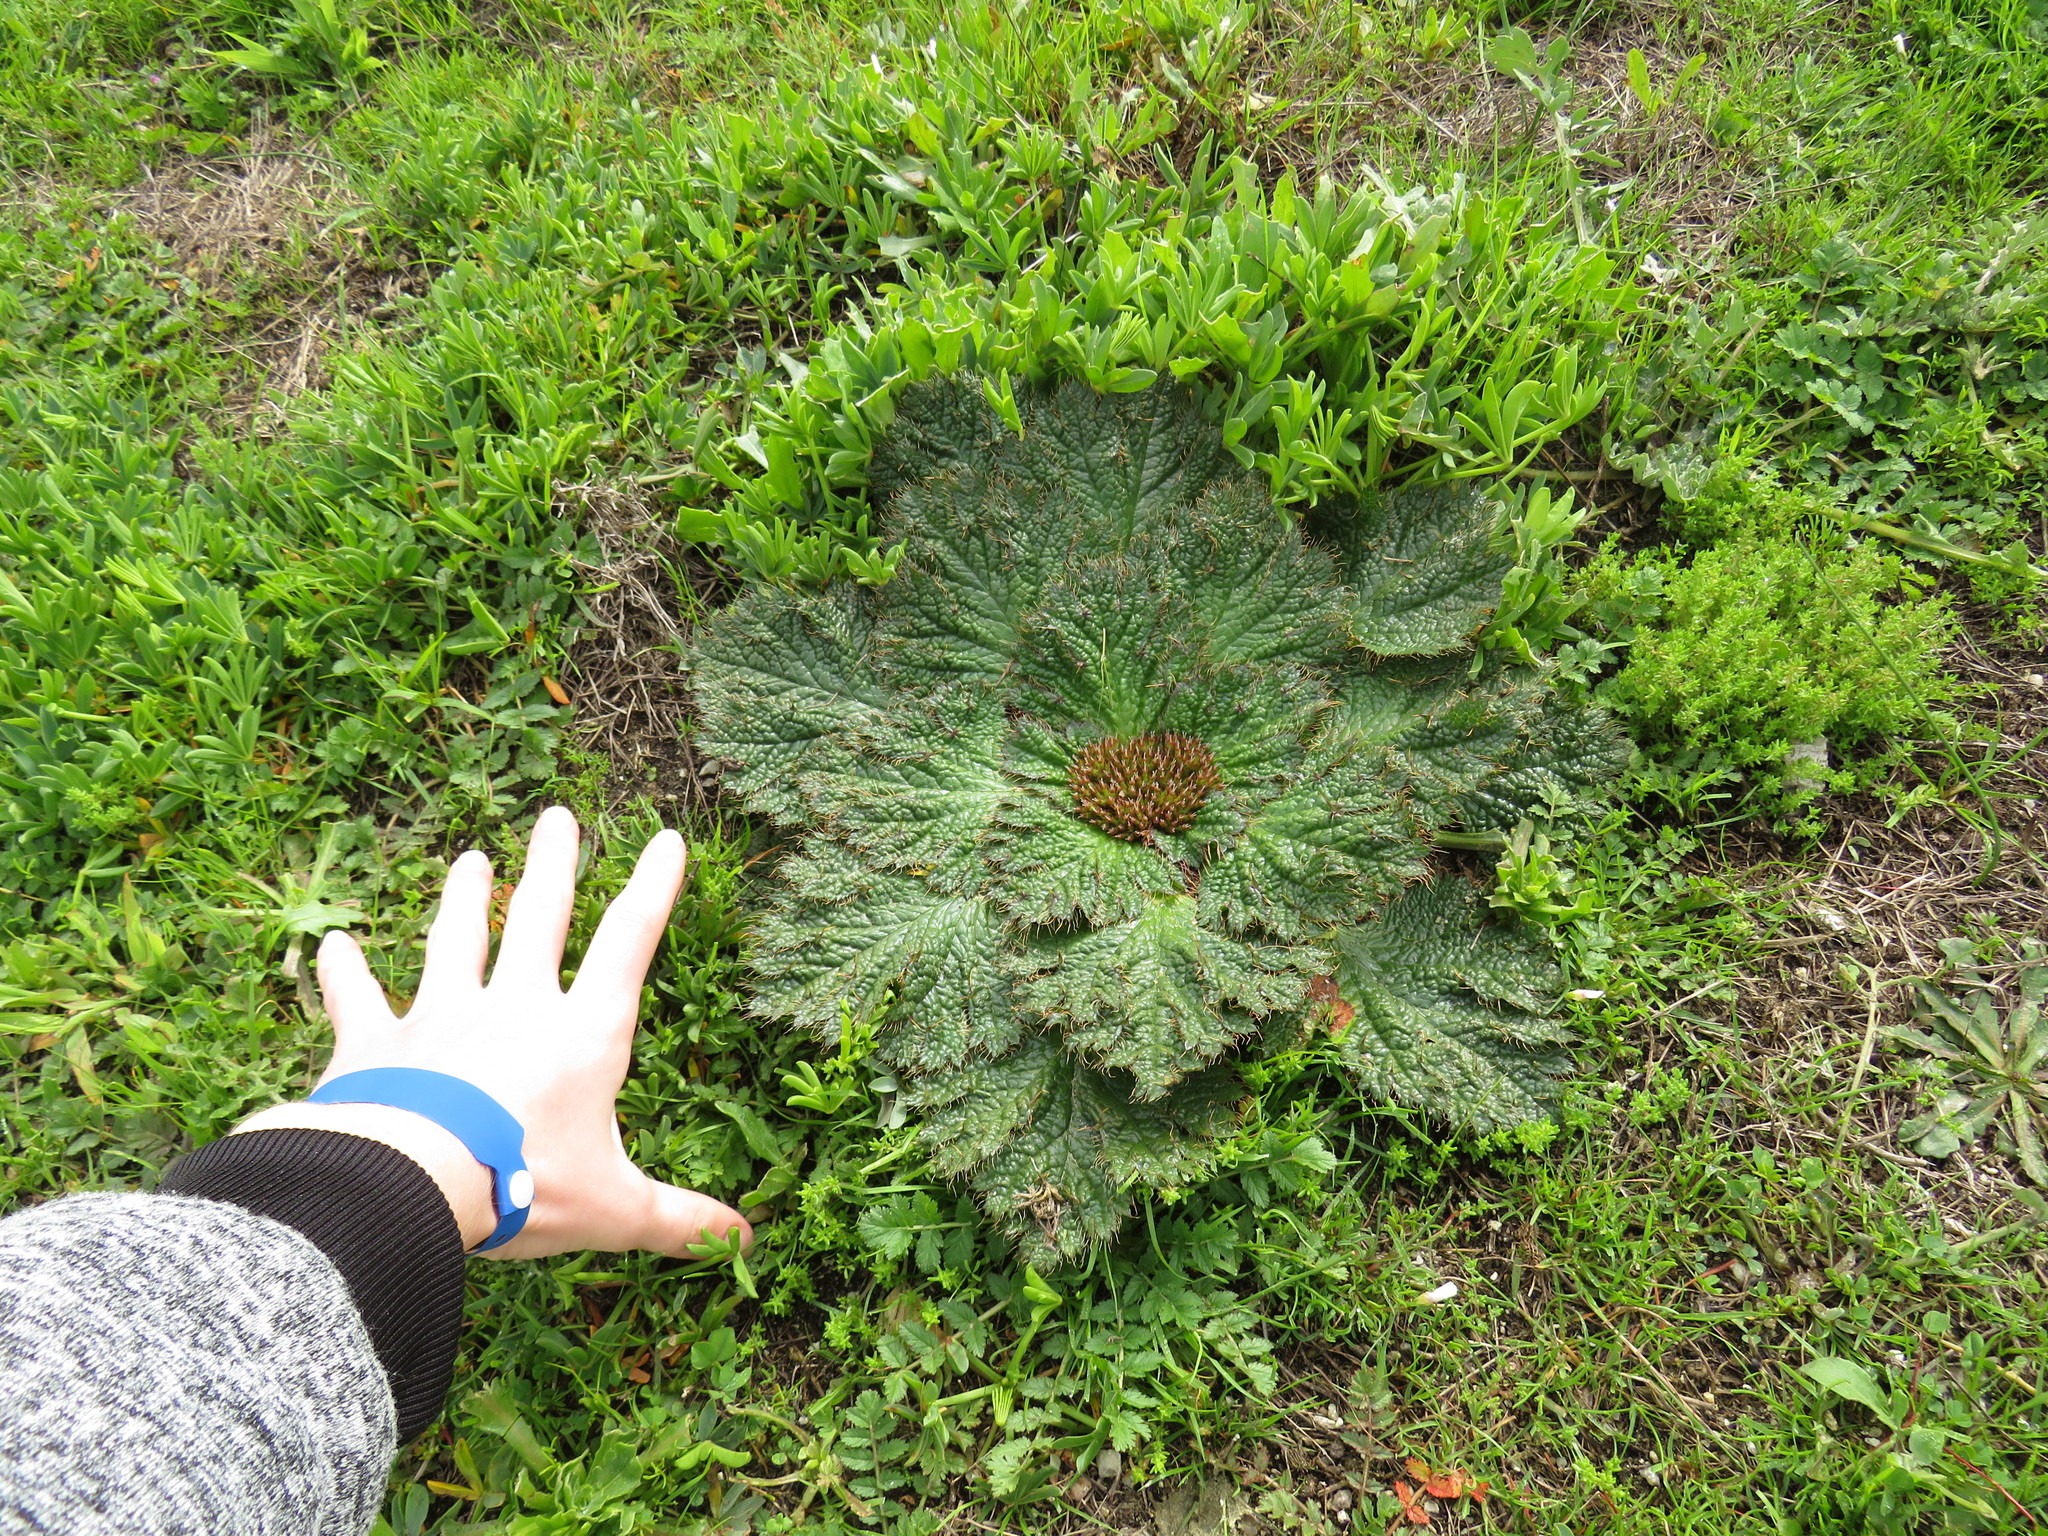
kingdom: Plantae
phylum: Tracheophyta
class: Magnoliopsida
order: Apiales
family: Apiaceae
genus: Arctopus
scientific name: Arctopus dregei
